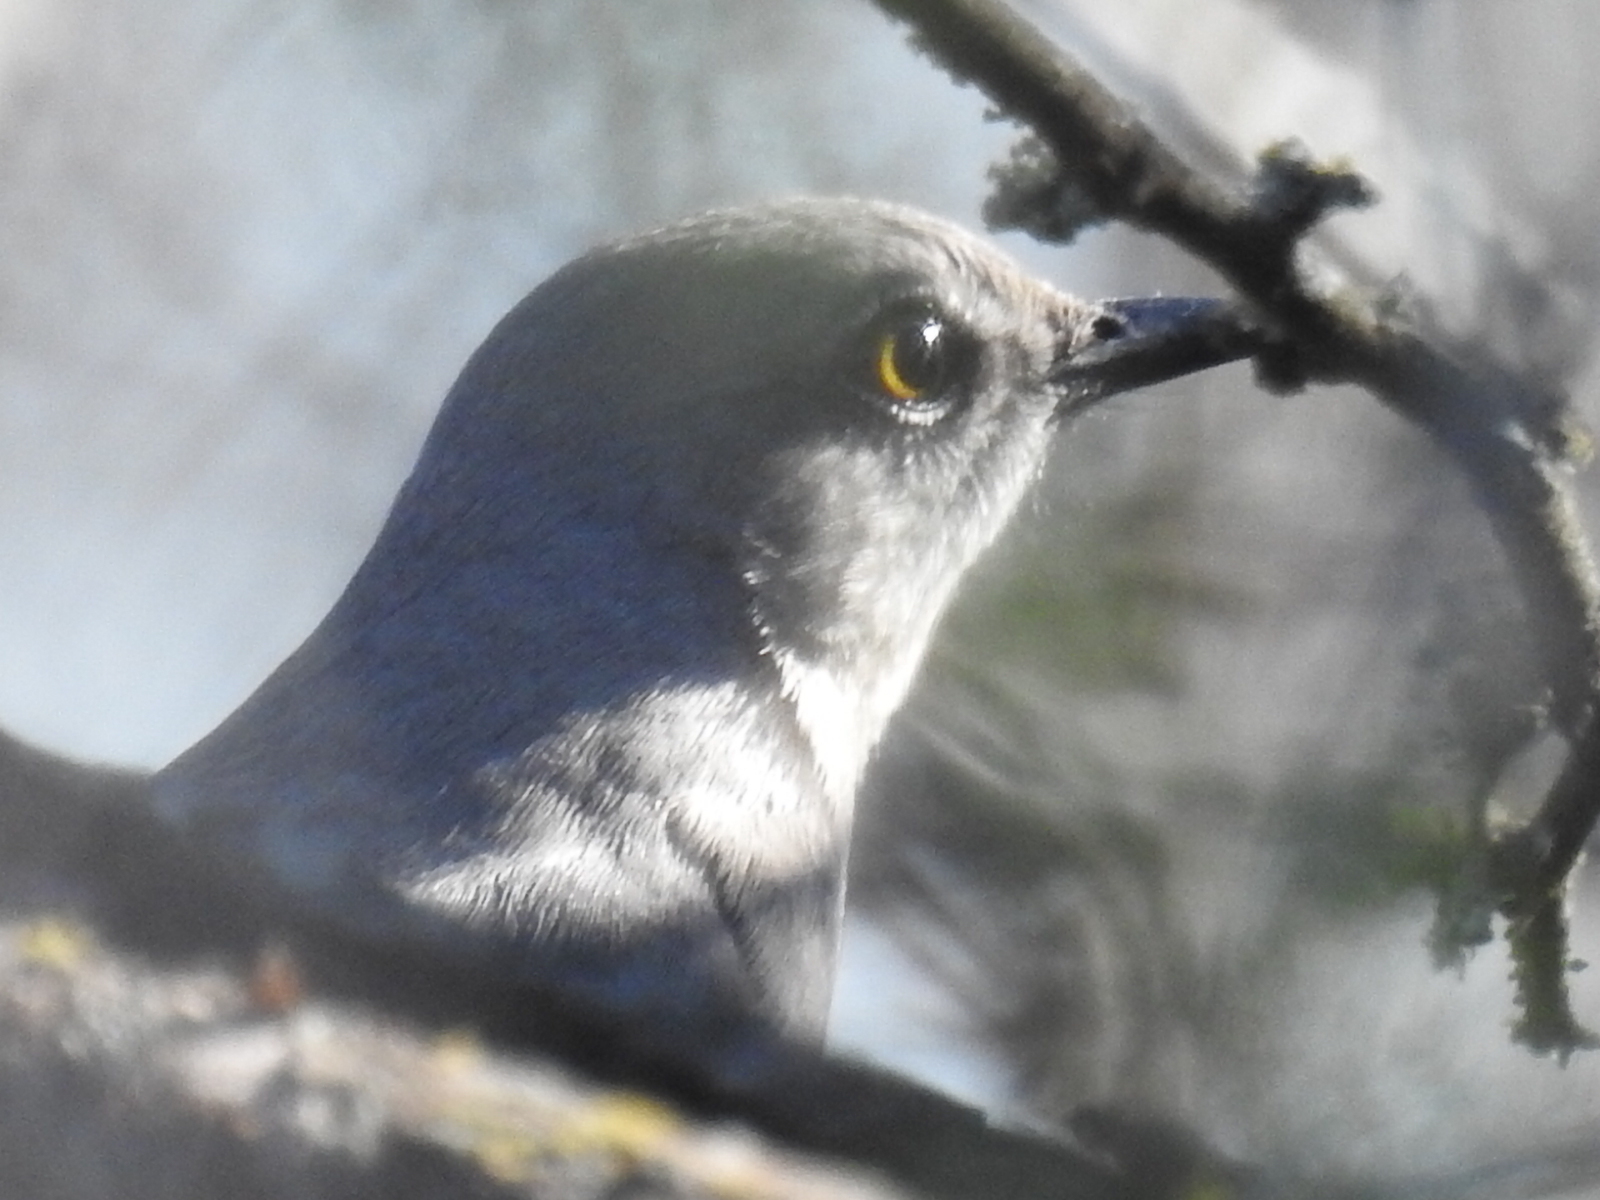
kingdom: Animalia
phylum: Chordata
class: Aves
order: Passeriformes
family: Mimidae
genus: Mimus
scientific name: Mimus polyglottos
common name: Northern mockingbird
